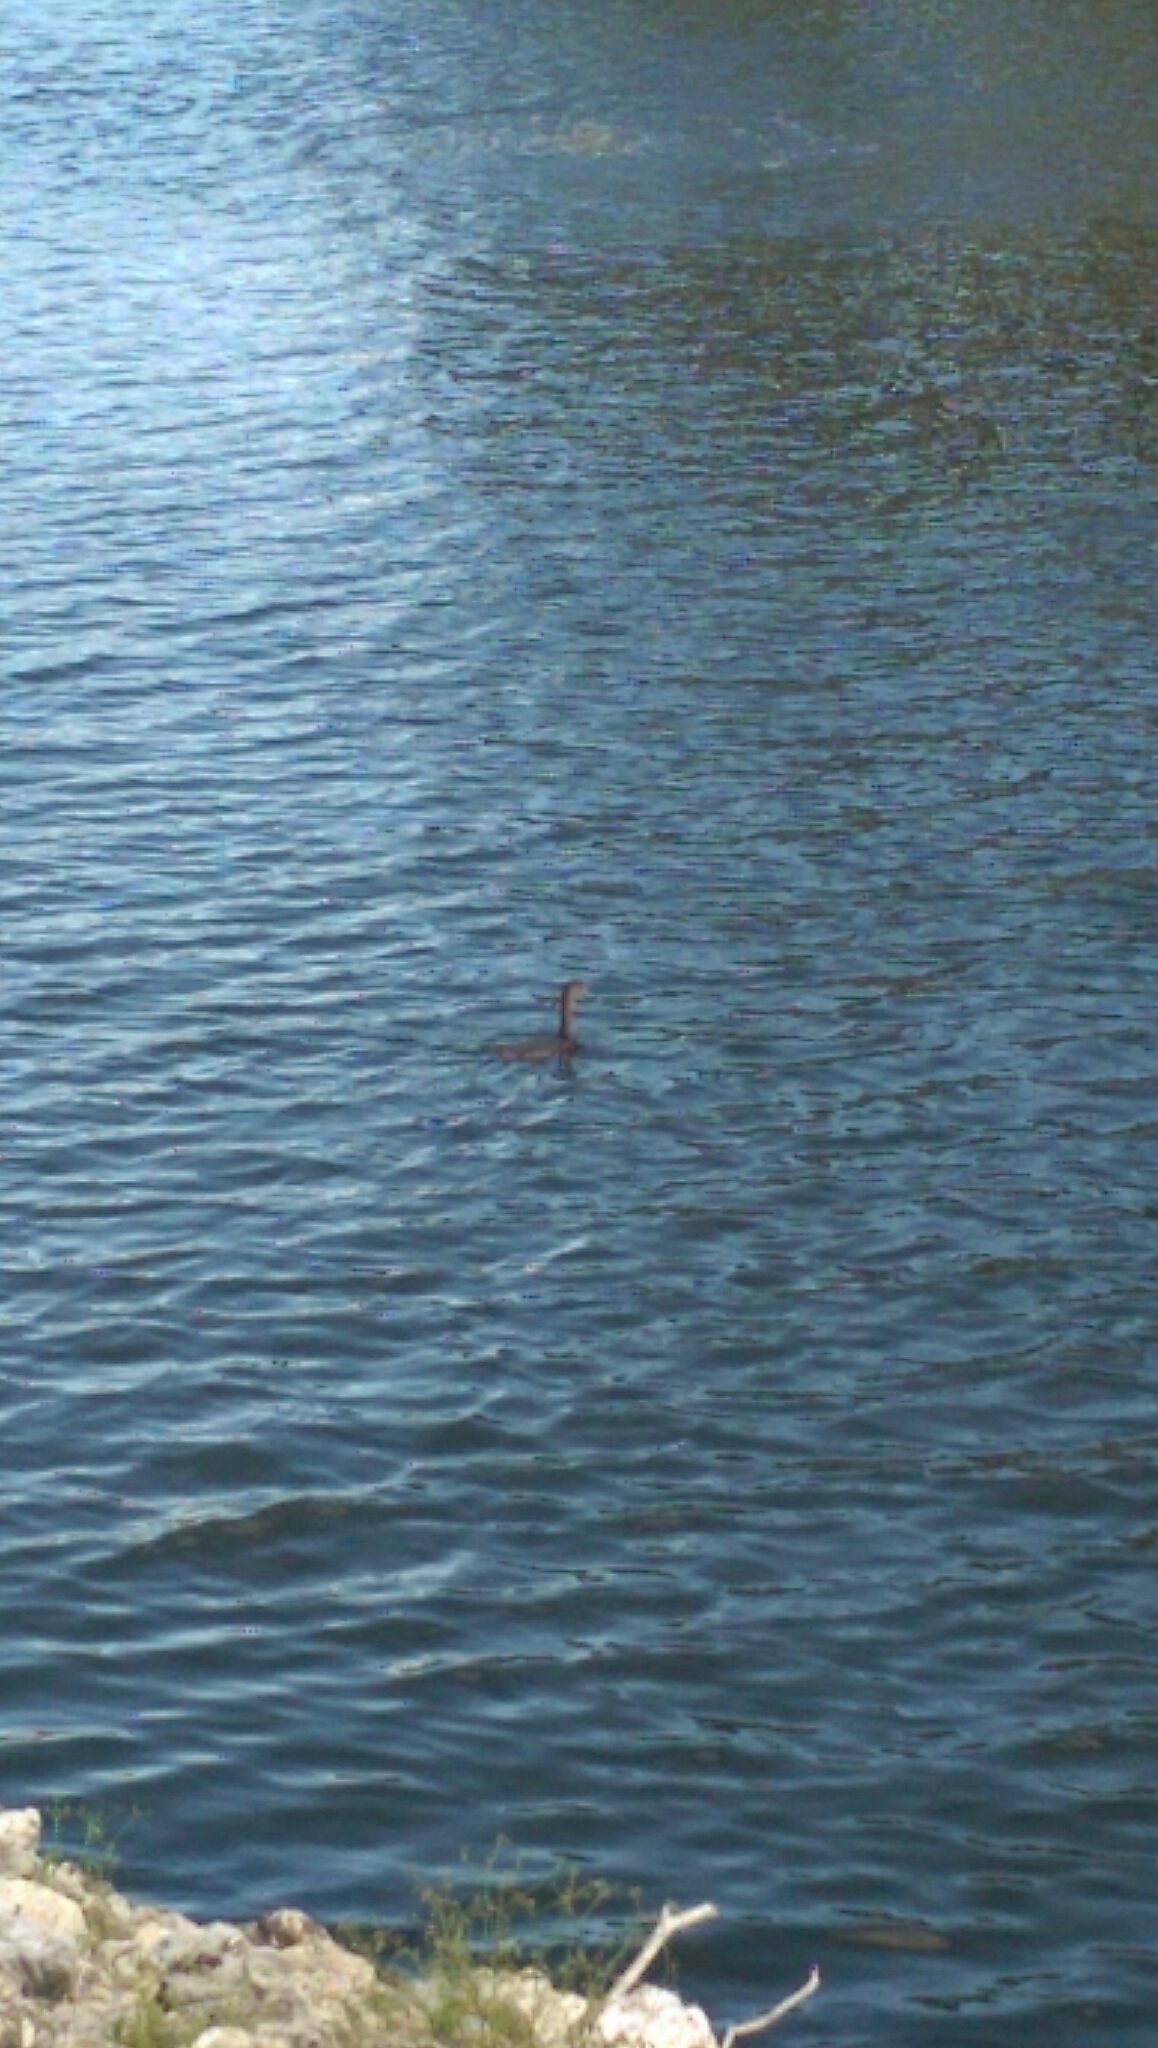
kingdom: Animalia
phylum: Chordata
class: Aves
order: Podicipediformes
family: Podicipedidae
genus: Podilymbus
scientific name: Podilymbus podiceps
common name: Pied-billed grebe
